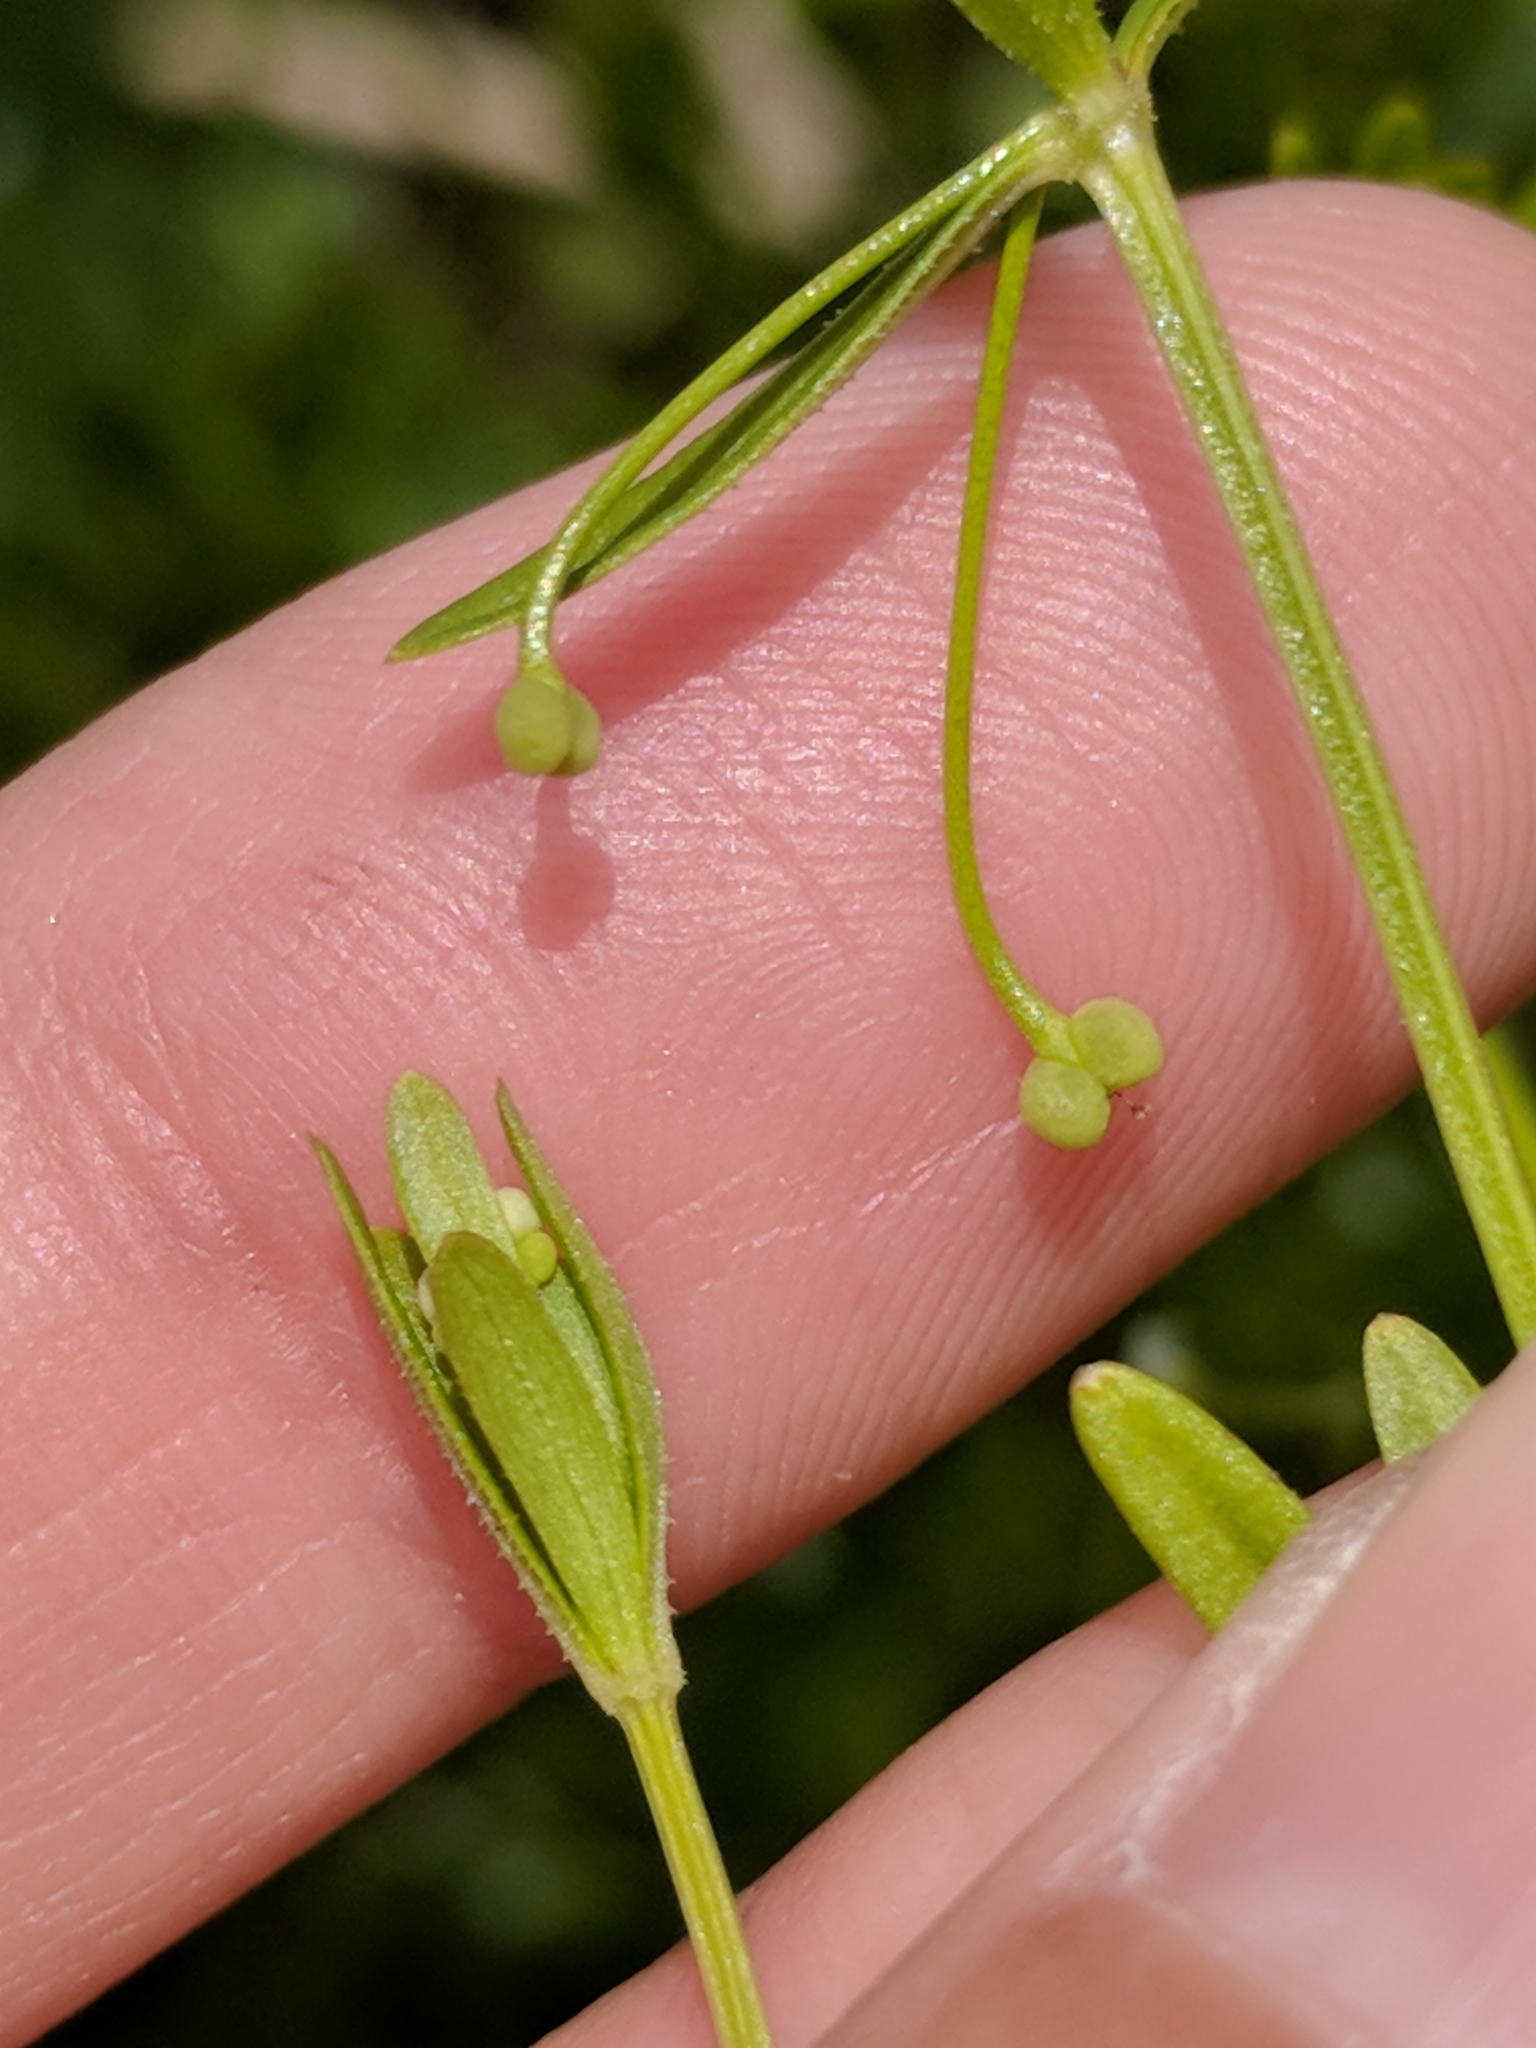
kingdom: Plantae
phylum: Tracheophyta
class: Magnoliopsida
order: Gentianales
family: Rubiaceae
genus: Galium
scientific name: Galium tinctorium
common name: Bedstraw
